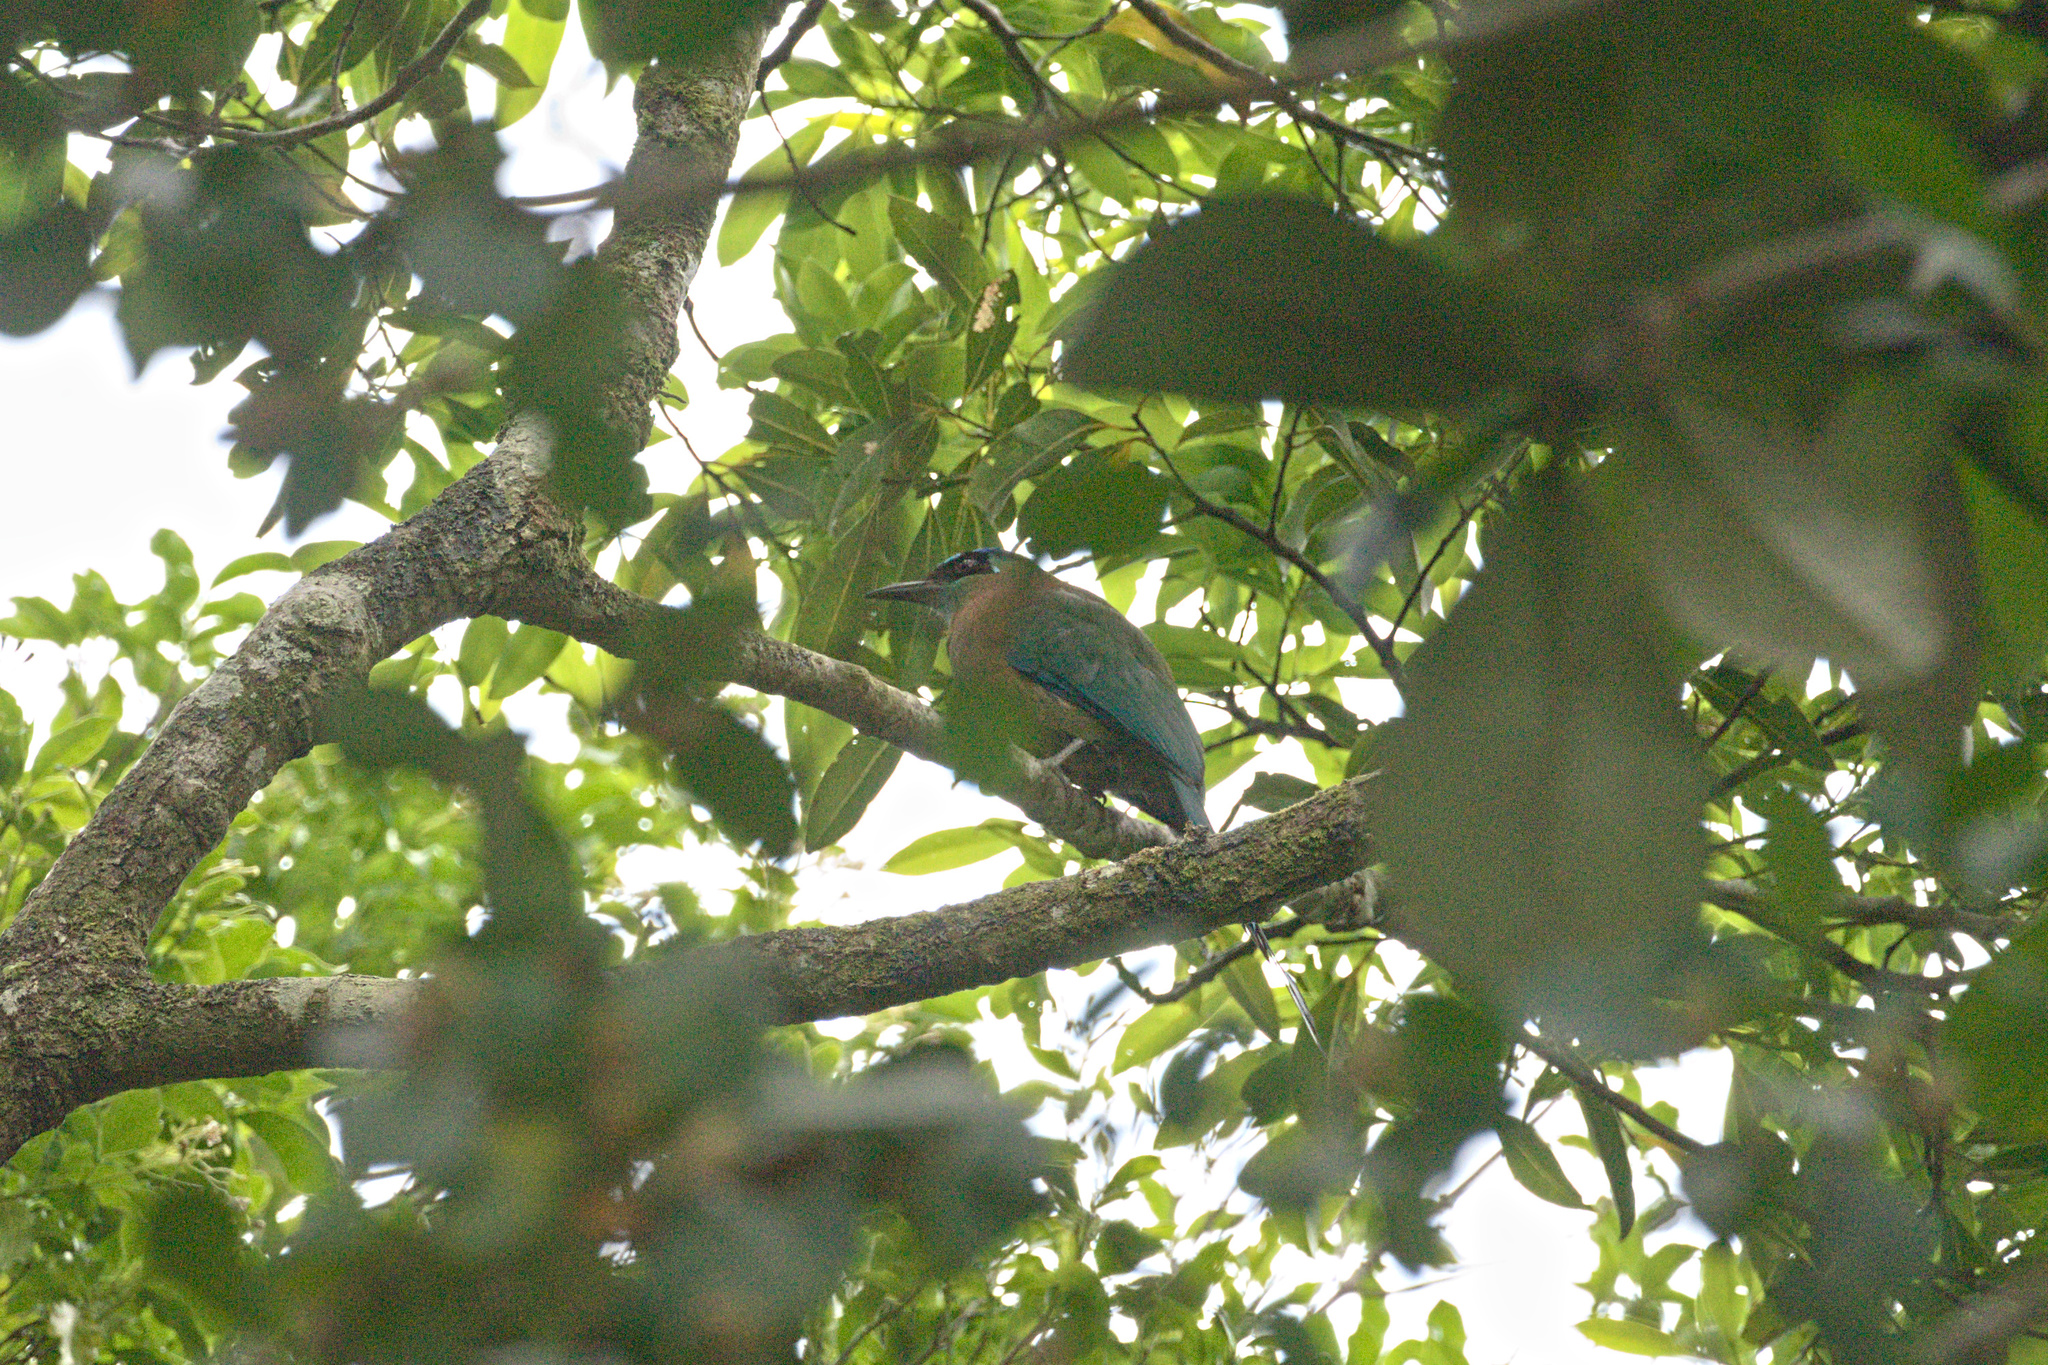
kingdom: Animalia
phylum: Chordata
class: Aves
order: Coraciiformes
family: Momotidae
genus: Momotus
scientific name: Momotus lessonii
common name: Lesson's motmot
